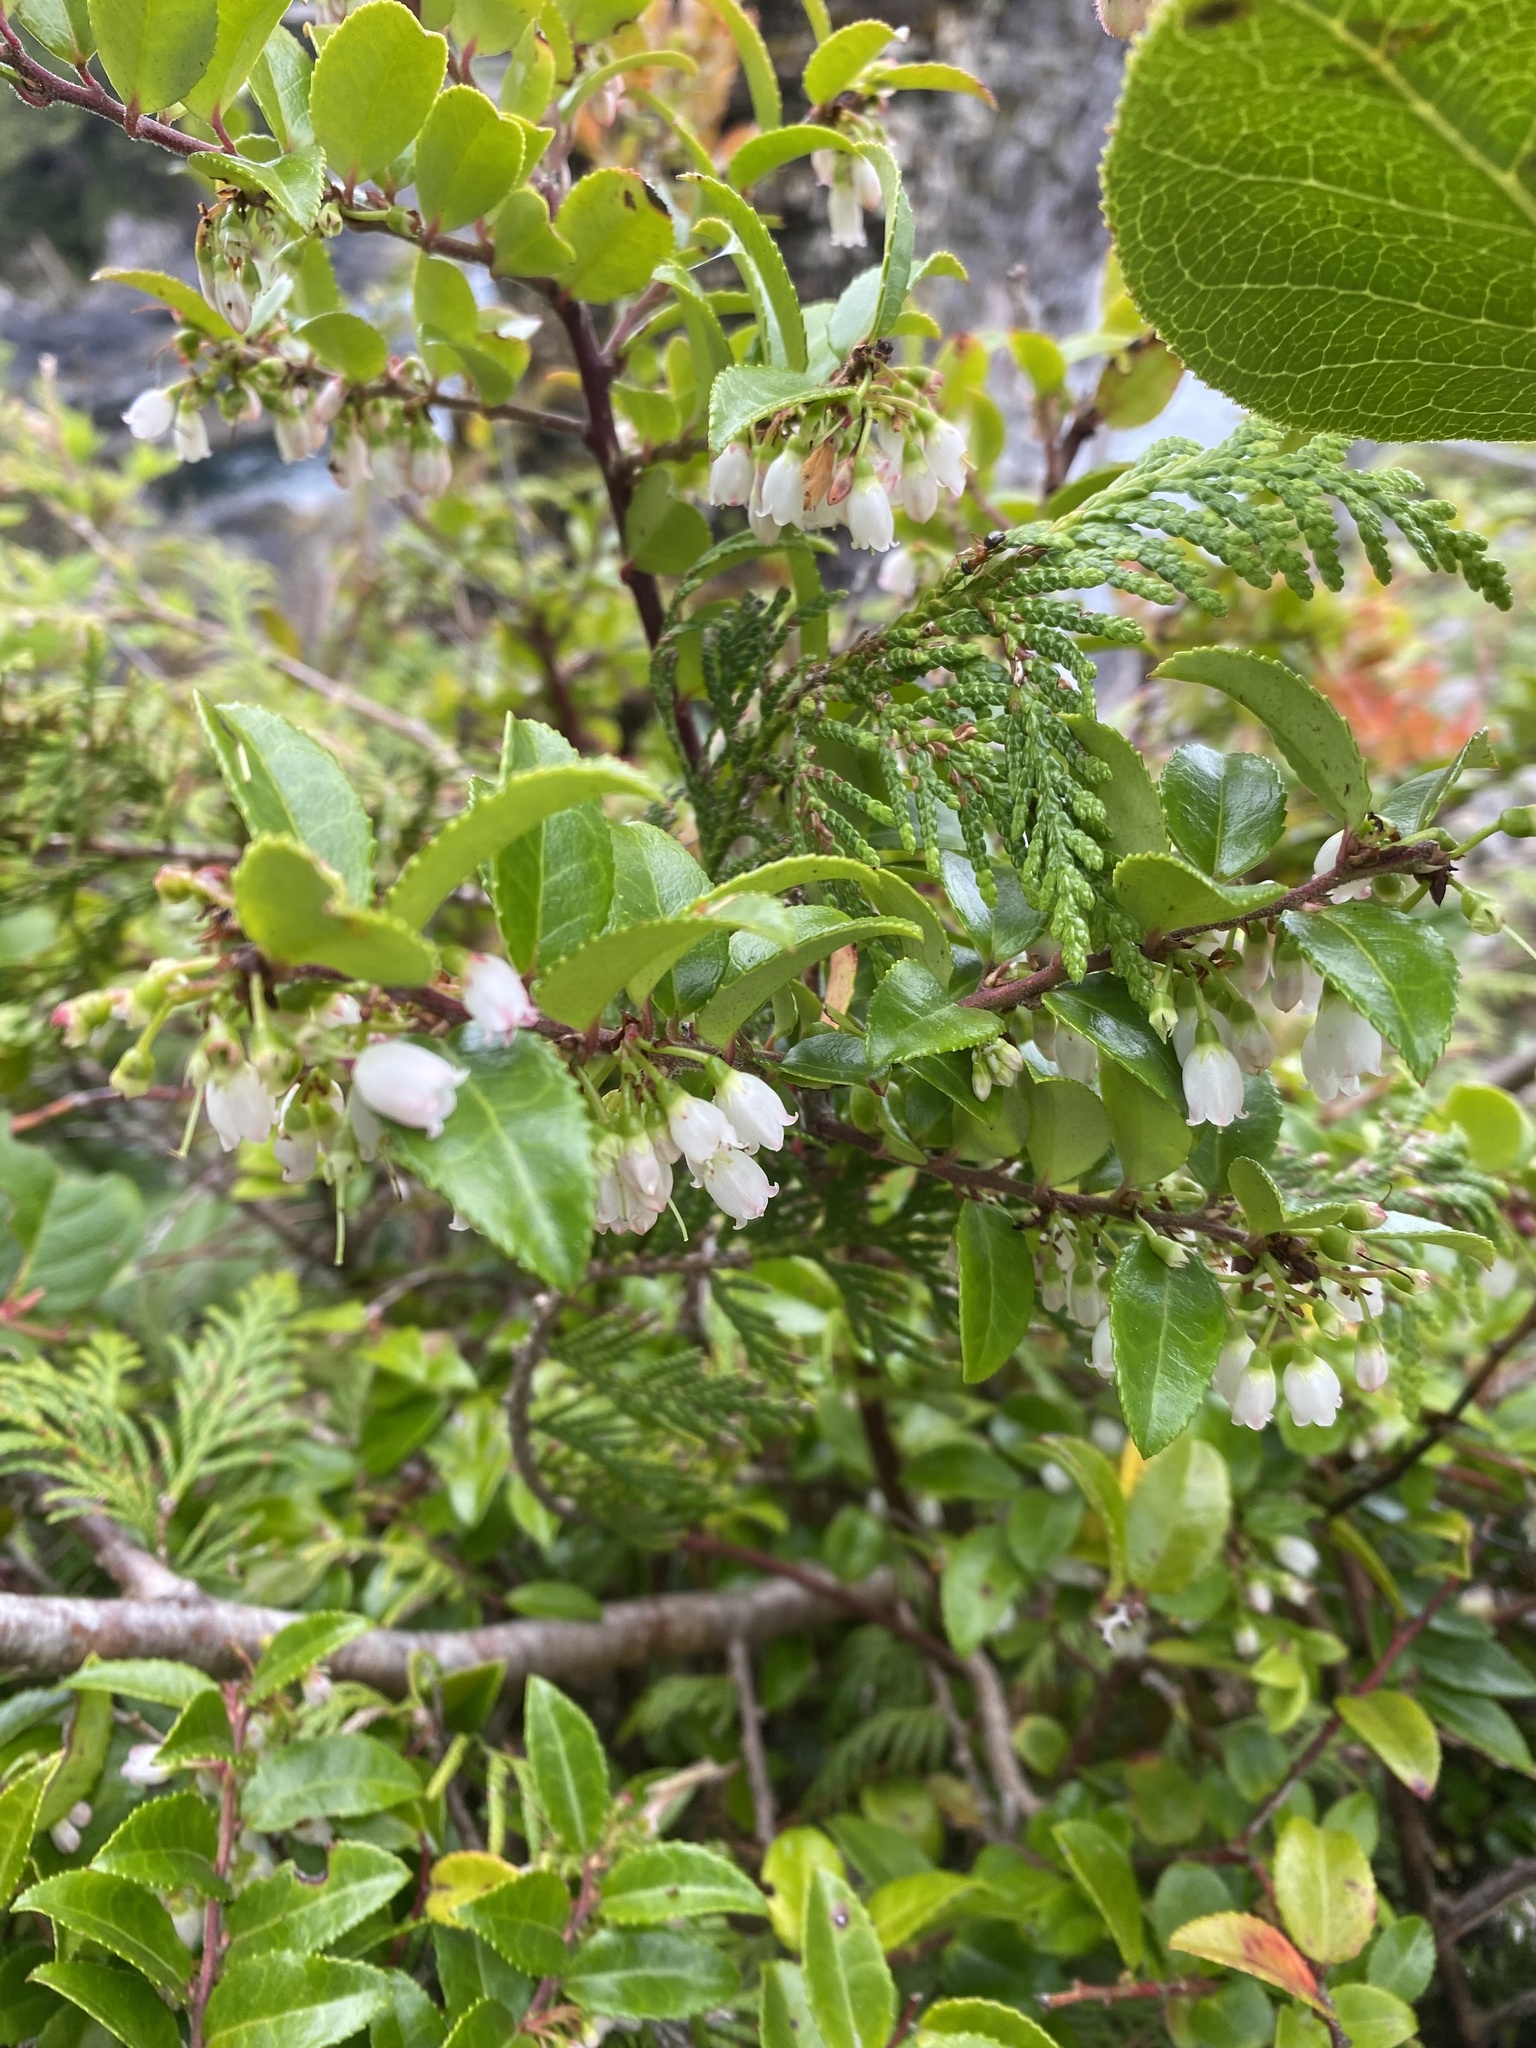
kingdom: Plantae
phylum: Tracheophyta
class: Magnoliopsida
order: Ericales
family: Ericaceae
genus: Vaccinium
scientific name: Vaccinium ovatum
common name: California-huckleberry
